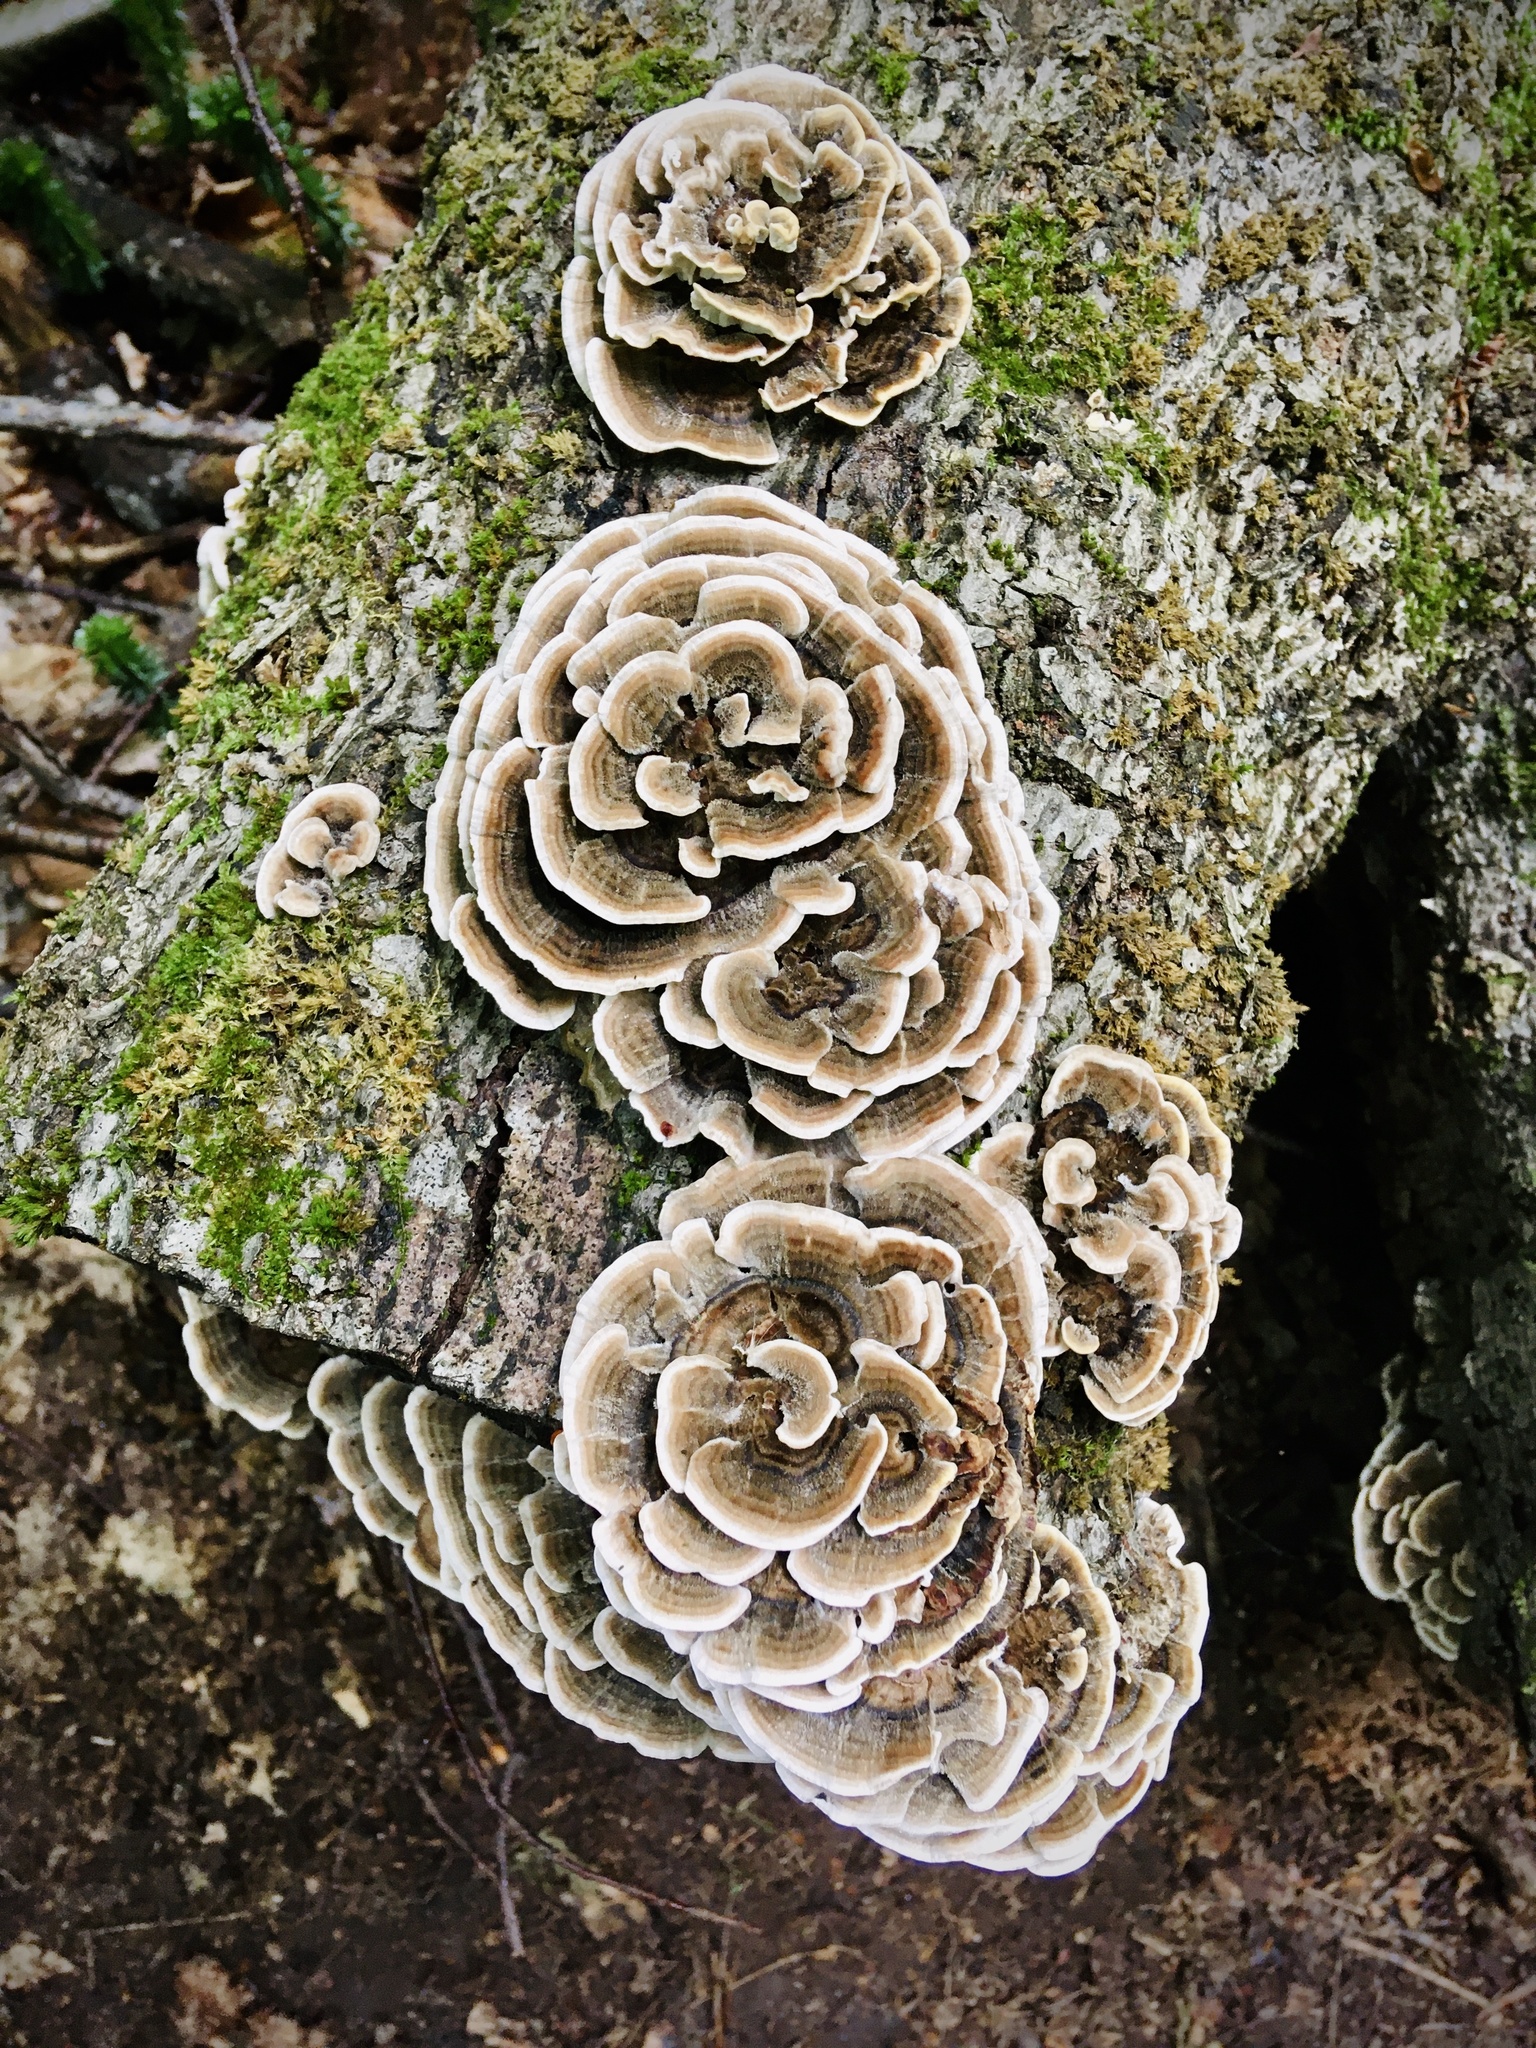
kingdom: Fungi
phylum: Basidiomycota
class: Agaricomycetes
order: Polyporales
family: Polyporaceae
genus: Trametes
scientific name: Trametes versicolor
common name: Turkeytail
